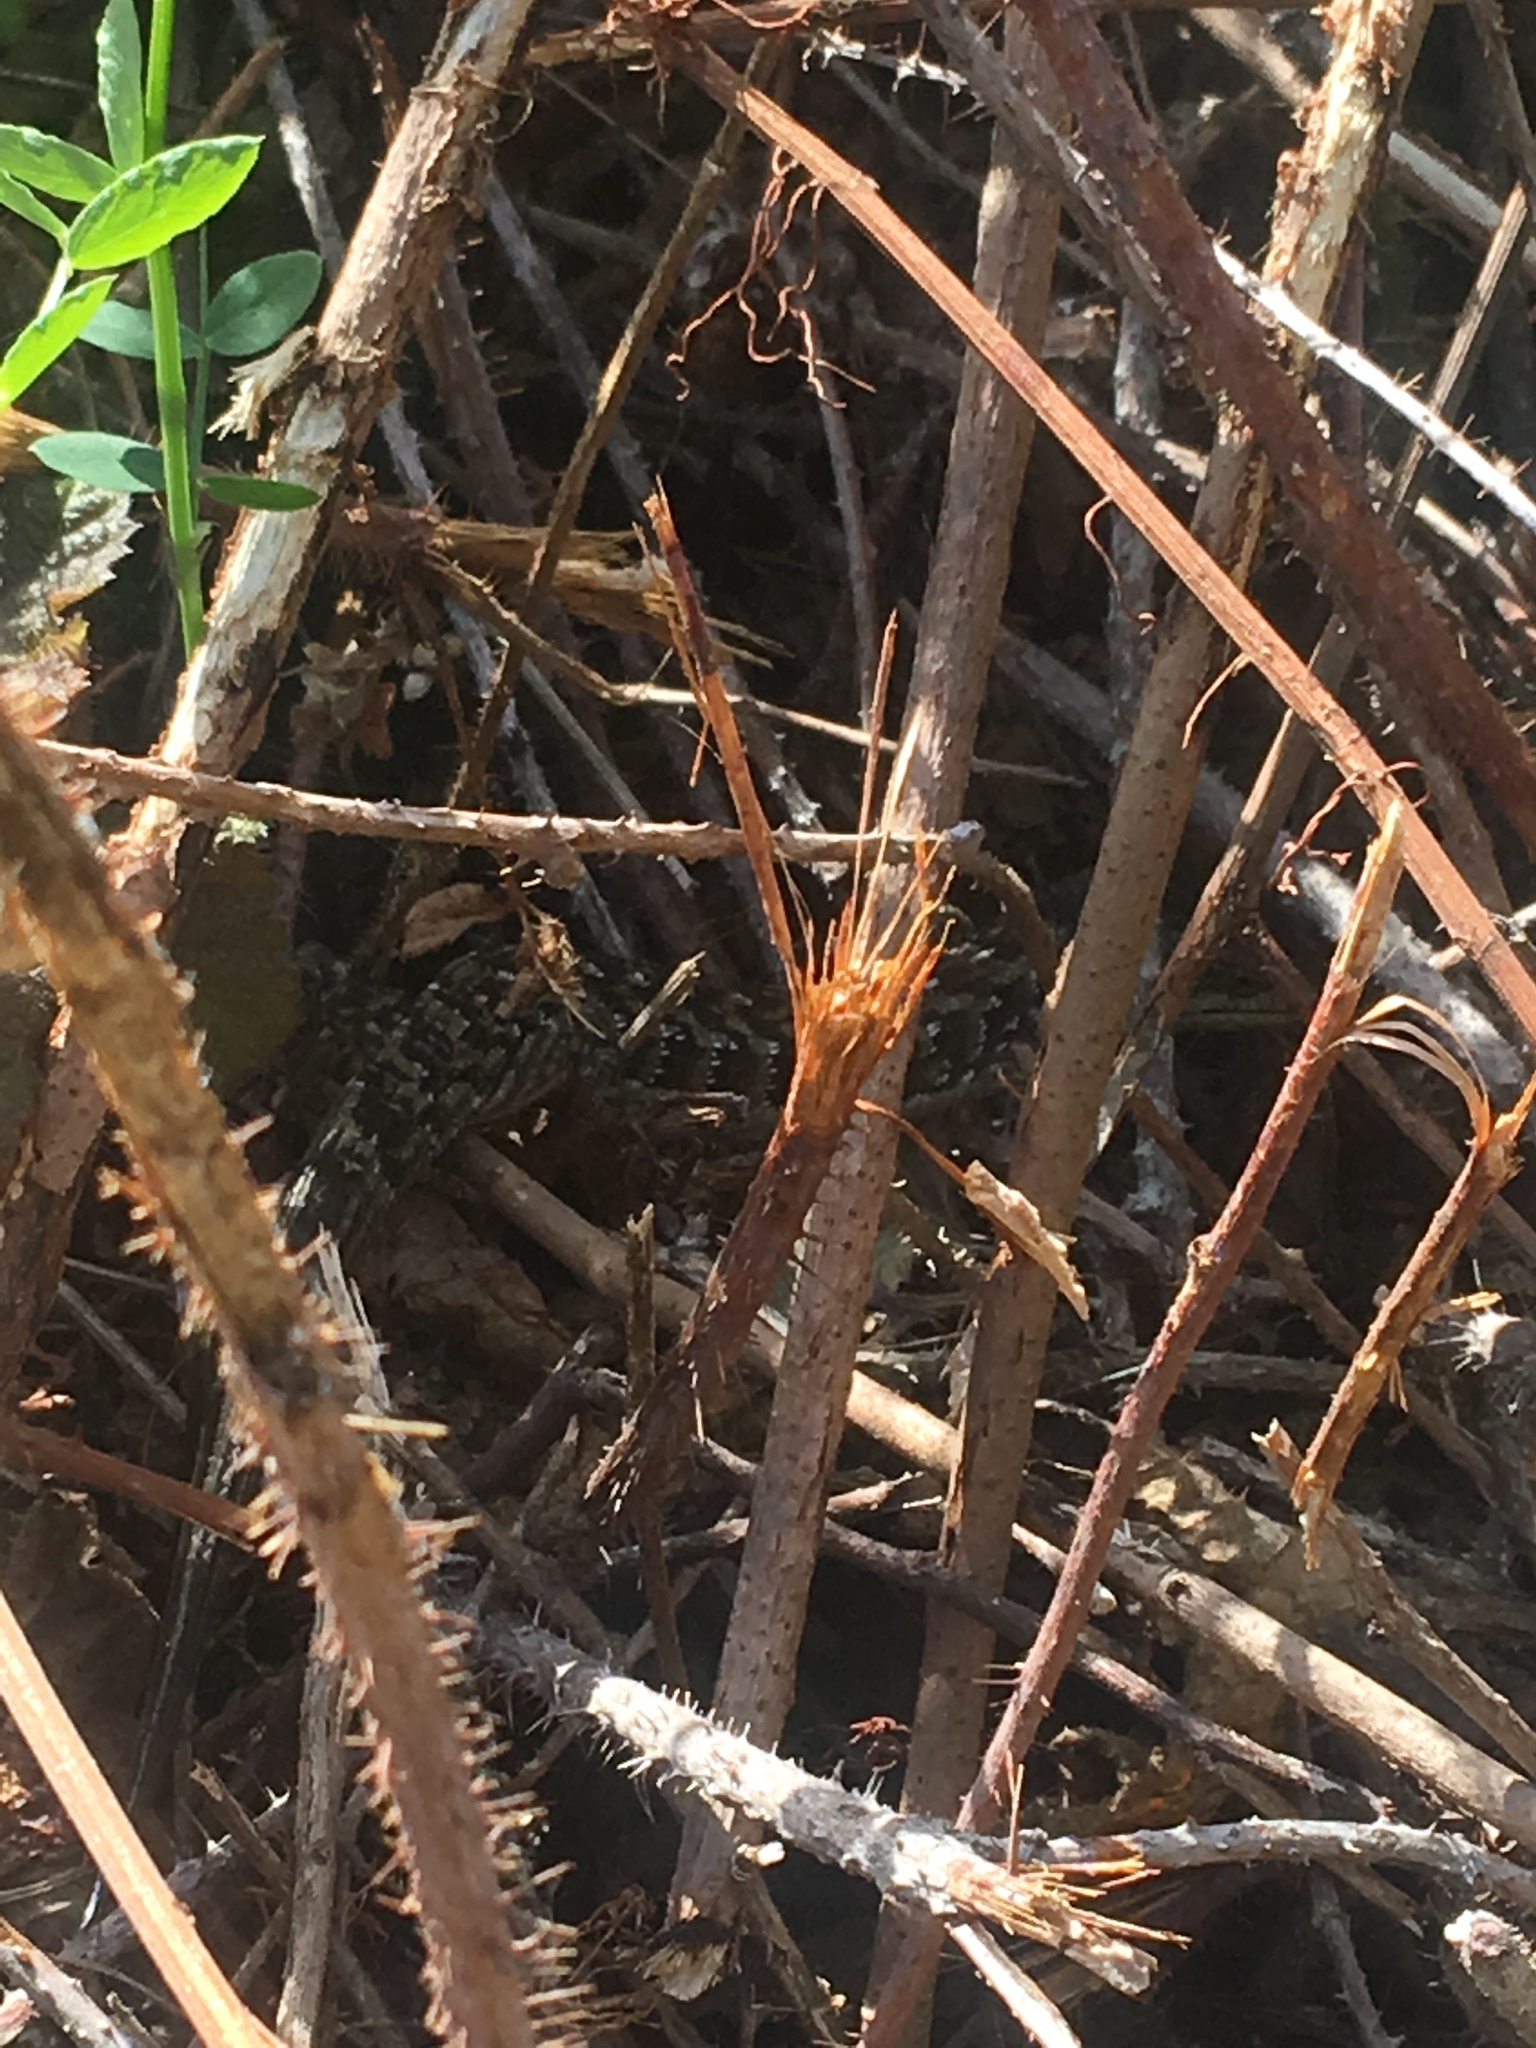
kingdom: Animalia
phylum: Chordata
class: Squamata
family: Anguidae
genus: Elgaria
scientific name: Elgaria multicarinata
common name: Southern alligator lizard
